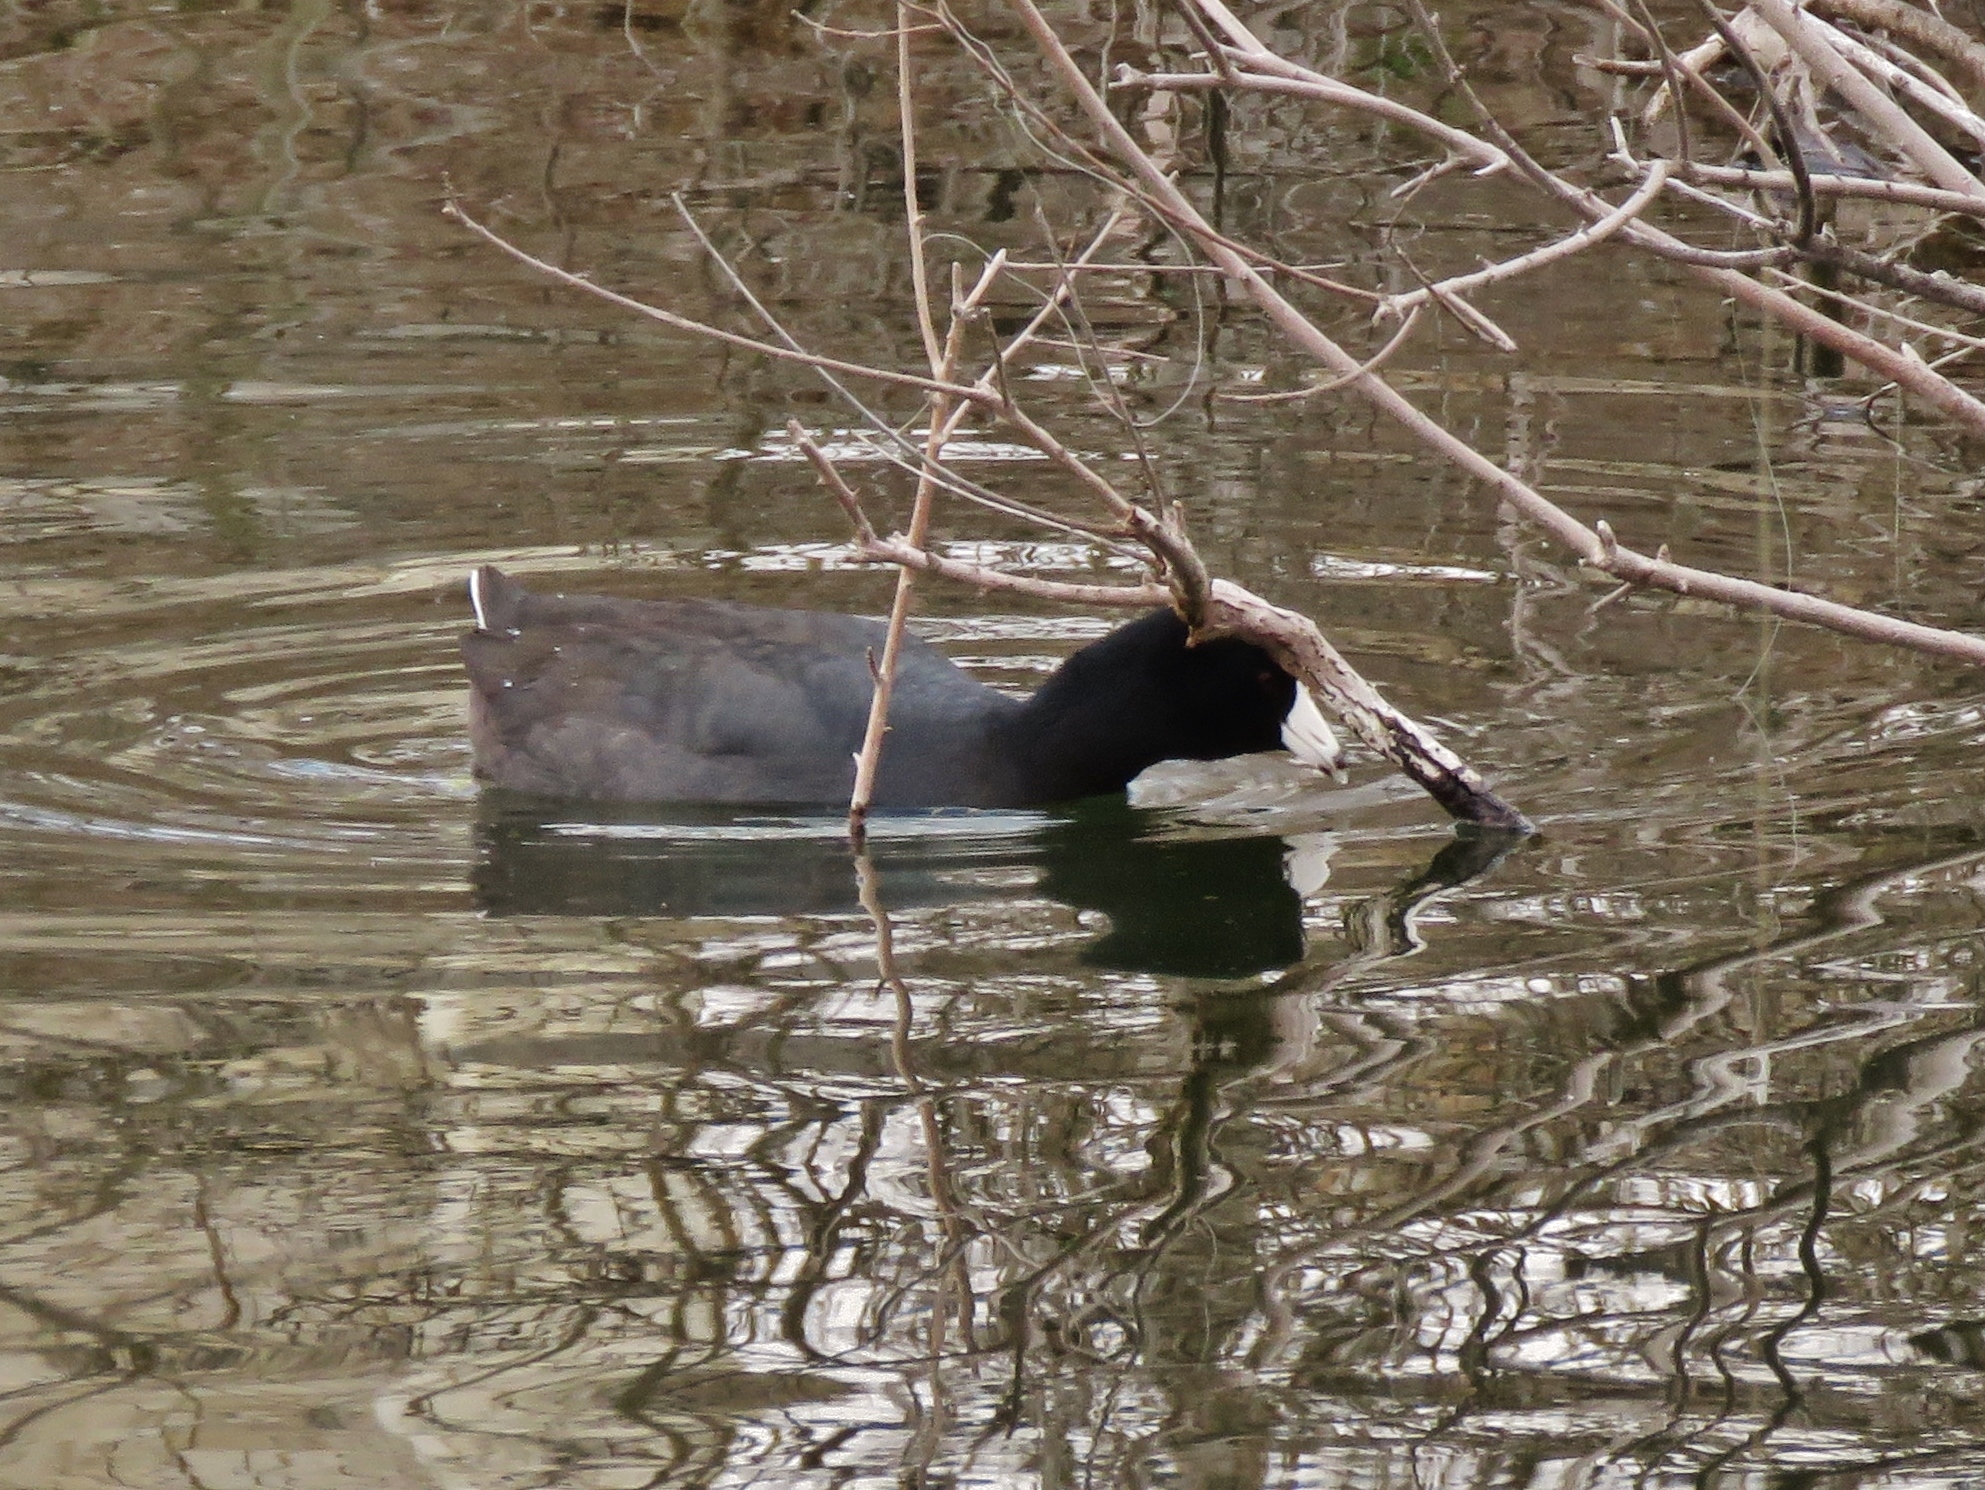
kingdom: Animalia
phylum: Chordata
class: Aves
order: Gruiformes
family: Rallidae
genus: Fulica
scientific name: Fulica americana
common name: American coot
